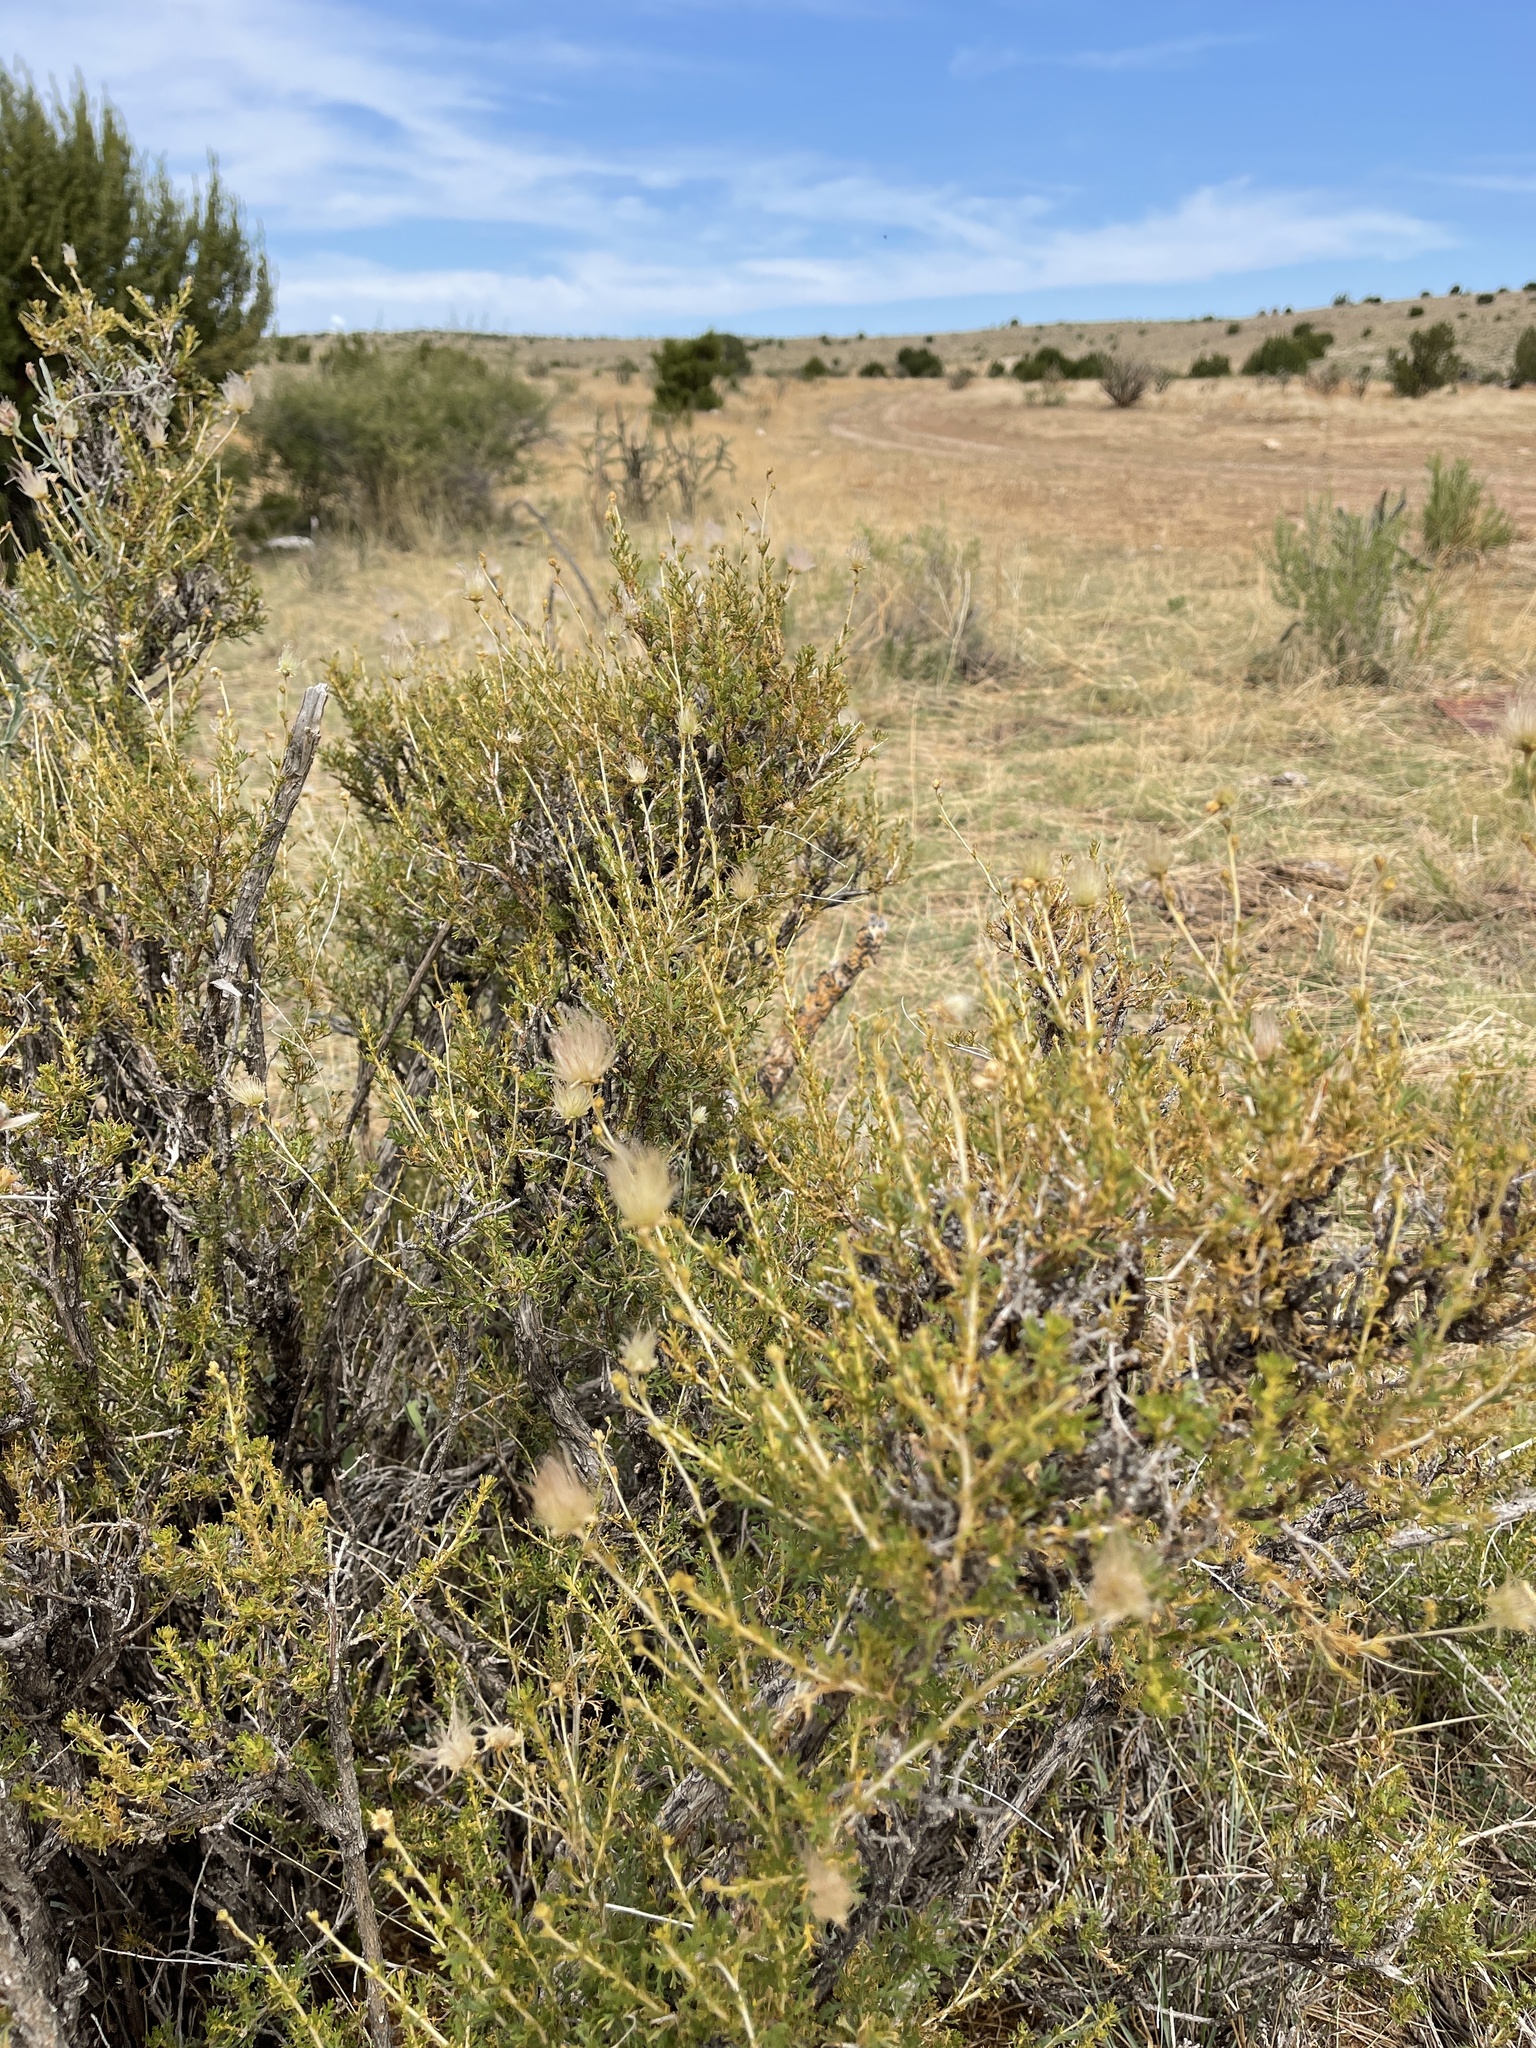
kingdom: Plantae
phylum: Tracheophyta
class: Magnoliopsida
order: Rosales
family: Rosaceae
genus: Fallugia
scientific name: Fallugia paradoxa
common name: Apache-plume
